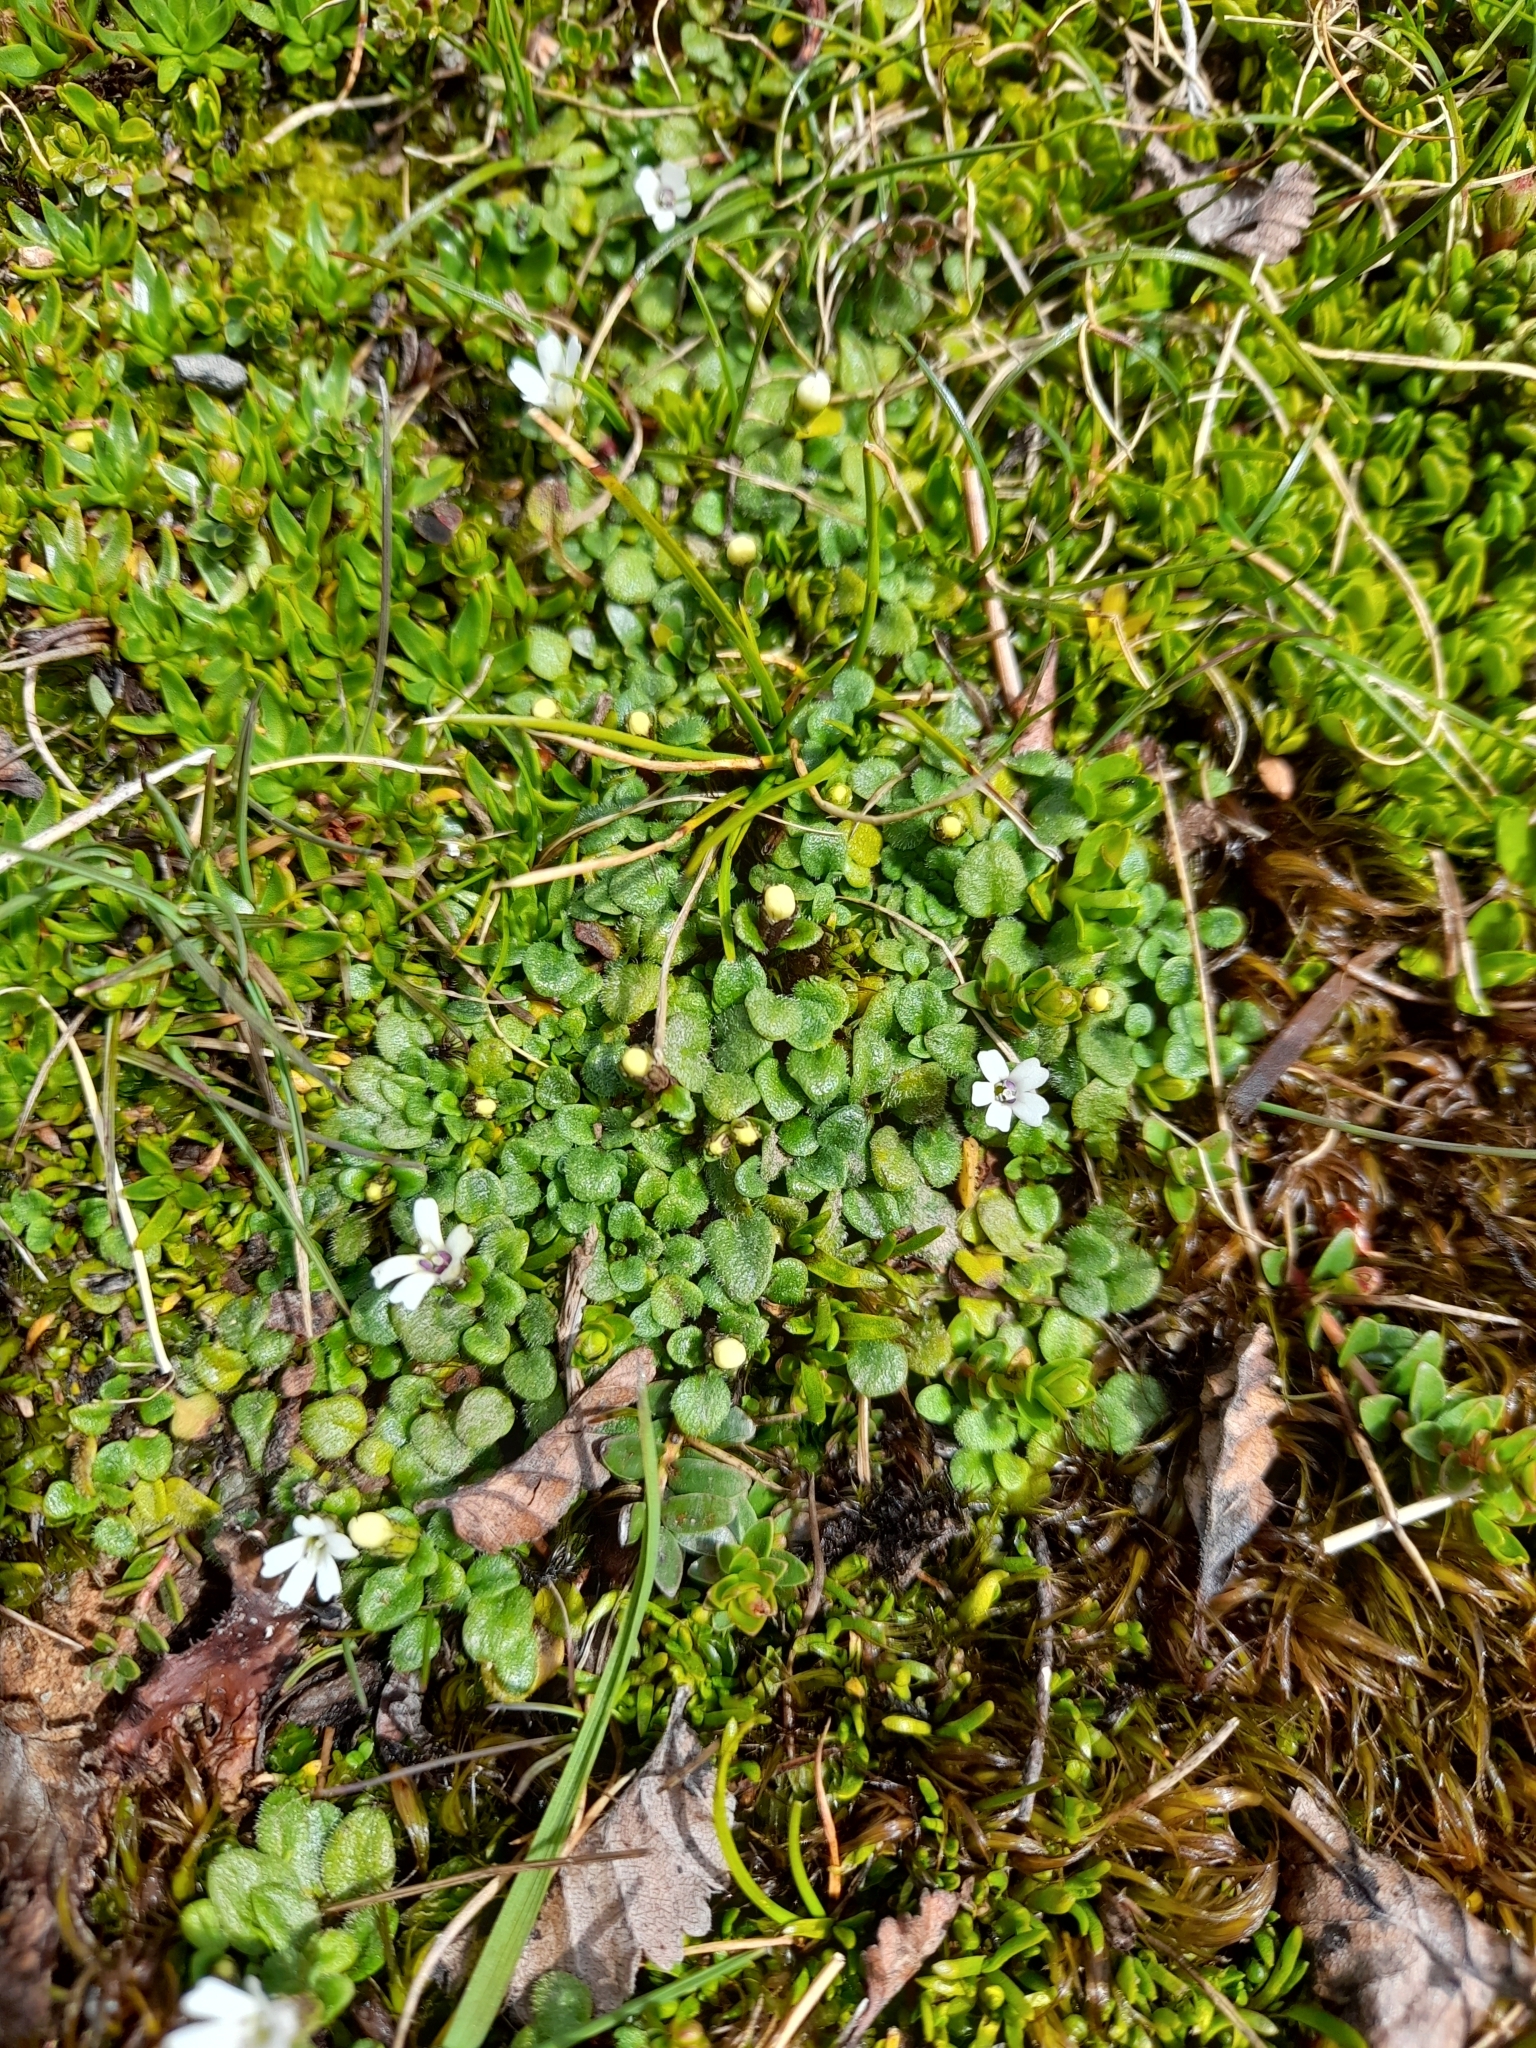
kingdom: Plantae
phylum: Tracheophyta
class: Magnoliopsida
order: Lamiales
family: Plantaginaceae
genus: Ourisia
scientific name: Ourisia fuegiana
